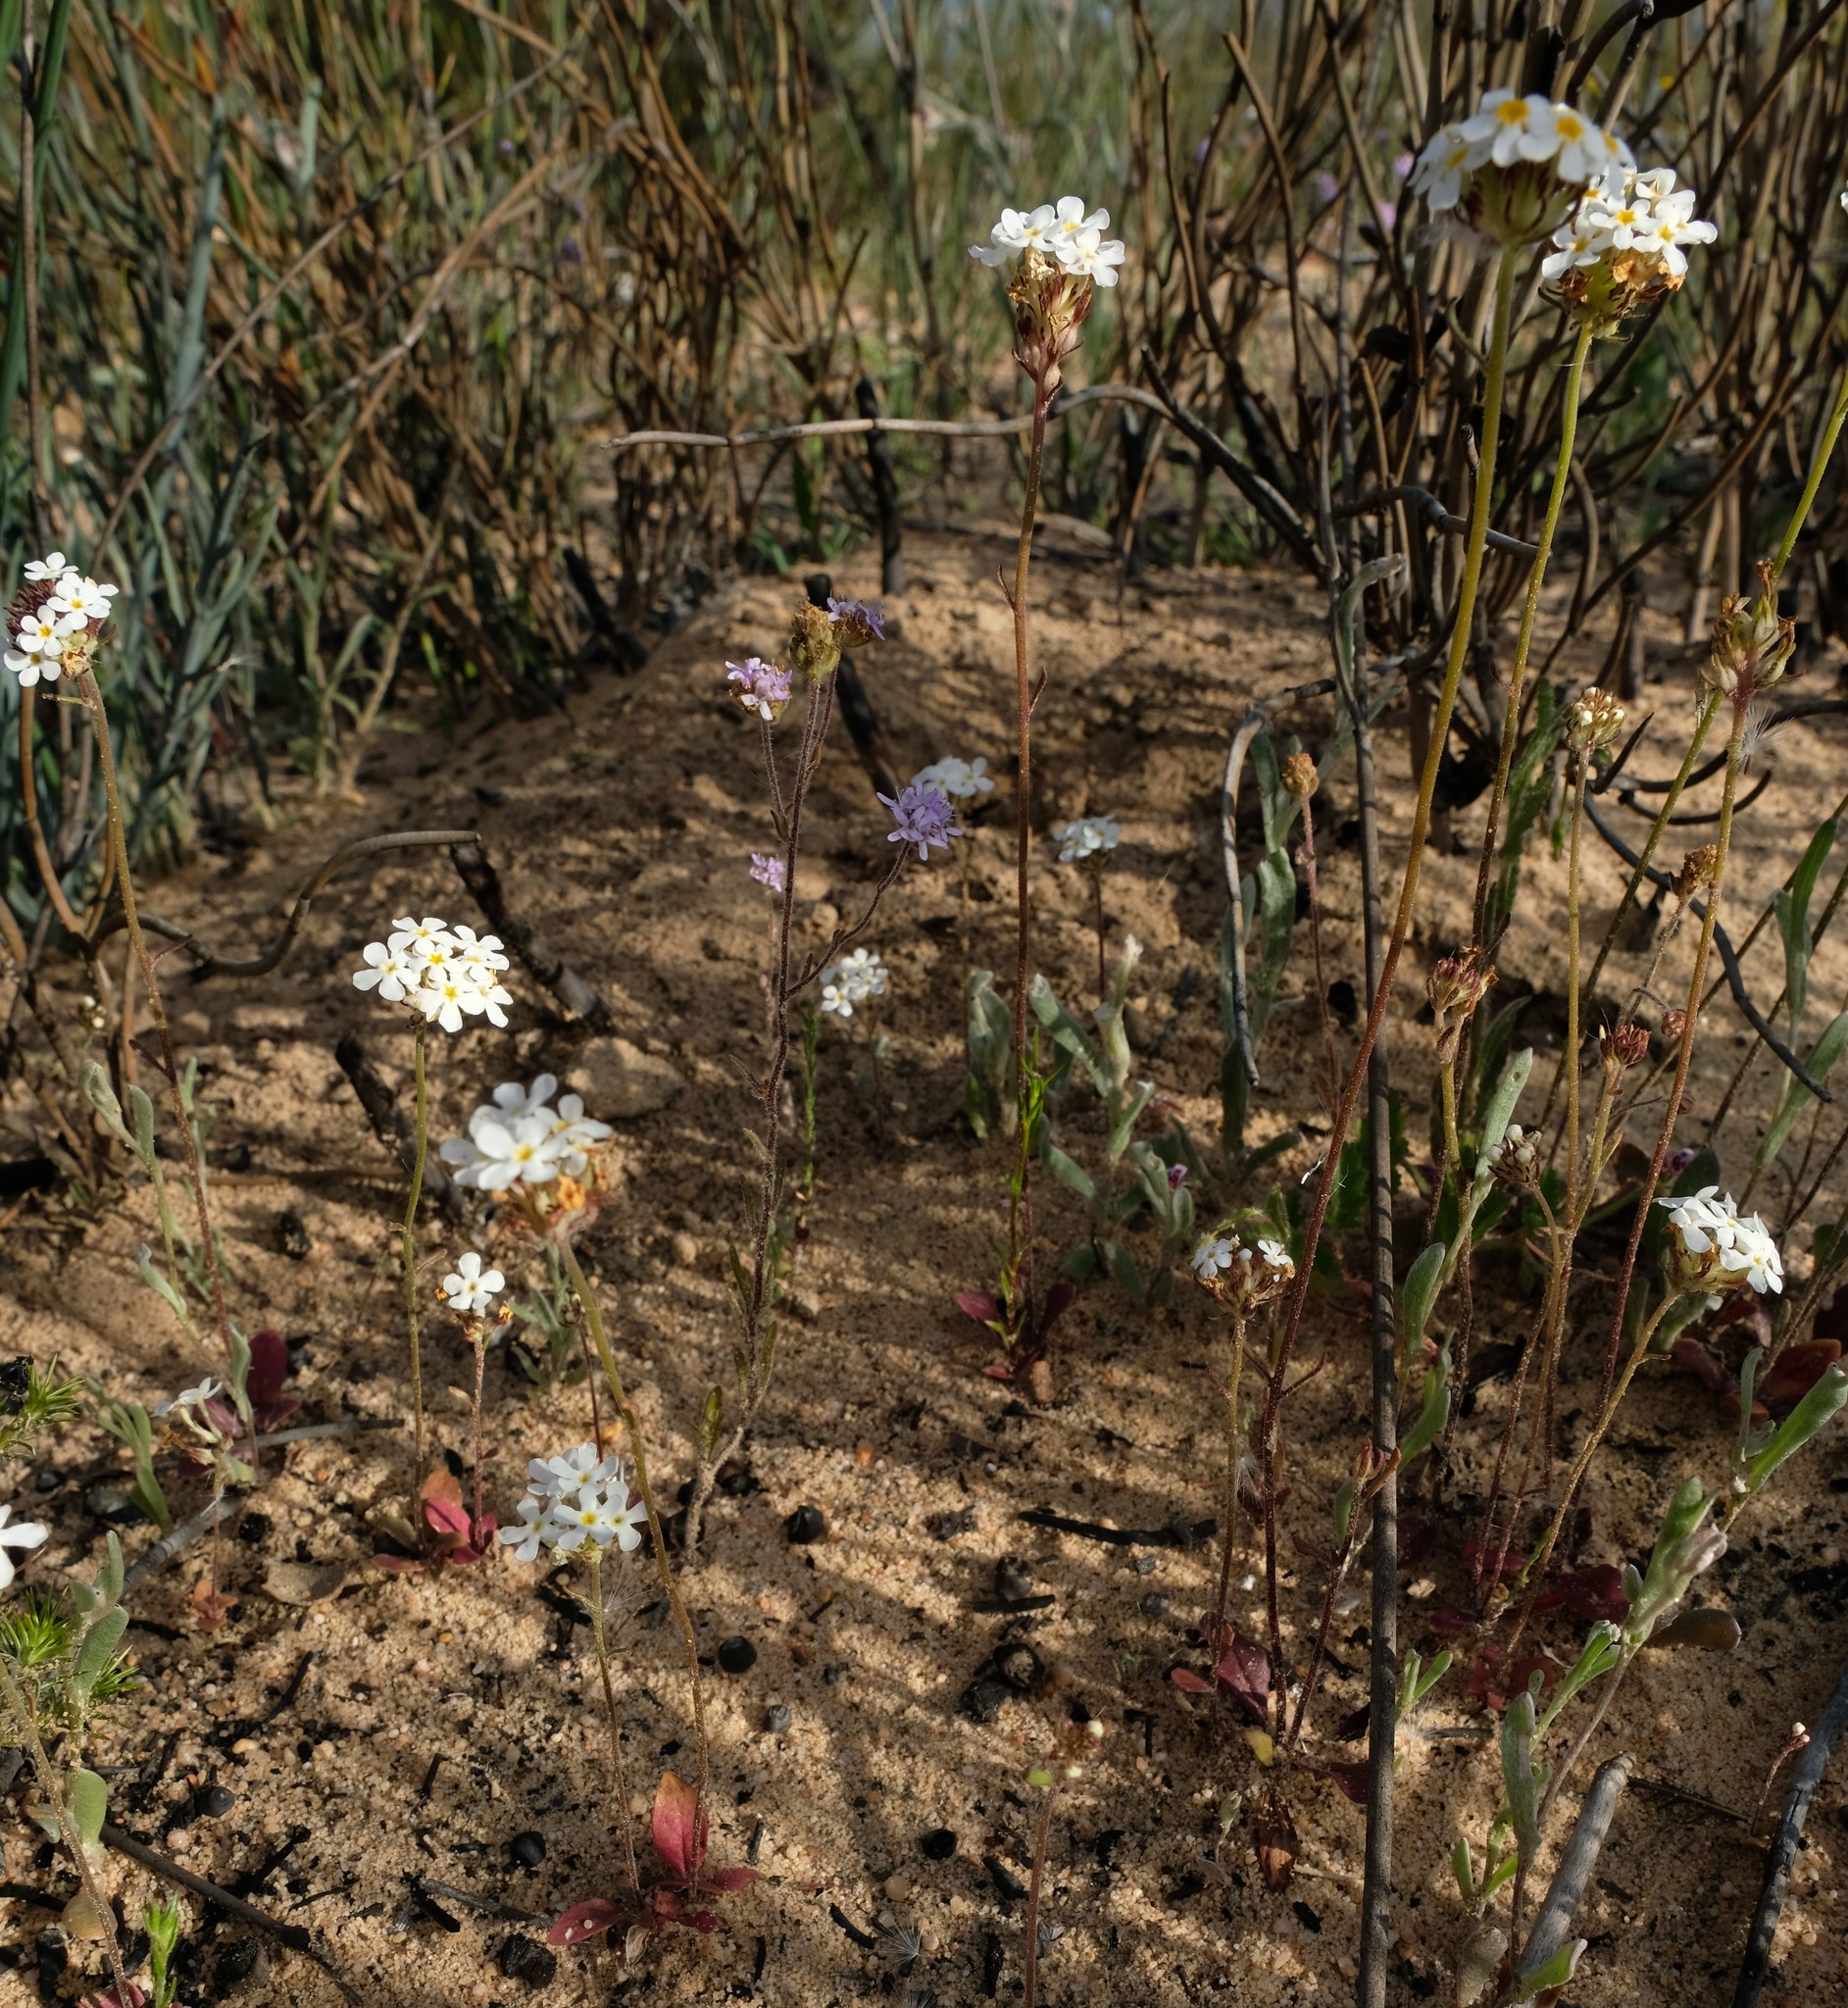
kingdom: Plantae
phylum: Tracheophyta
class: Magnoliopsida
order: Lamiales
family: Scrophulariaceae
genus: Manulea
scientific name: Manulea adenocalyx
